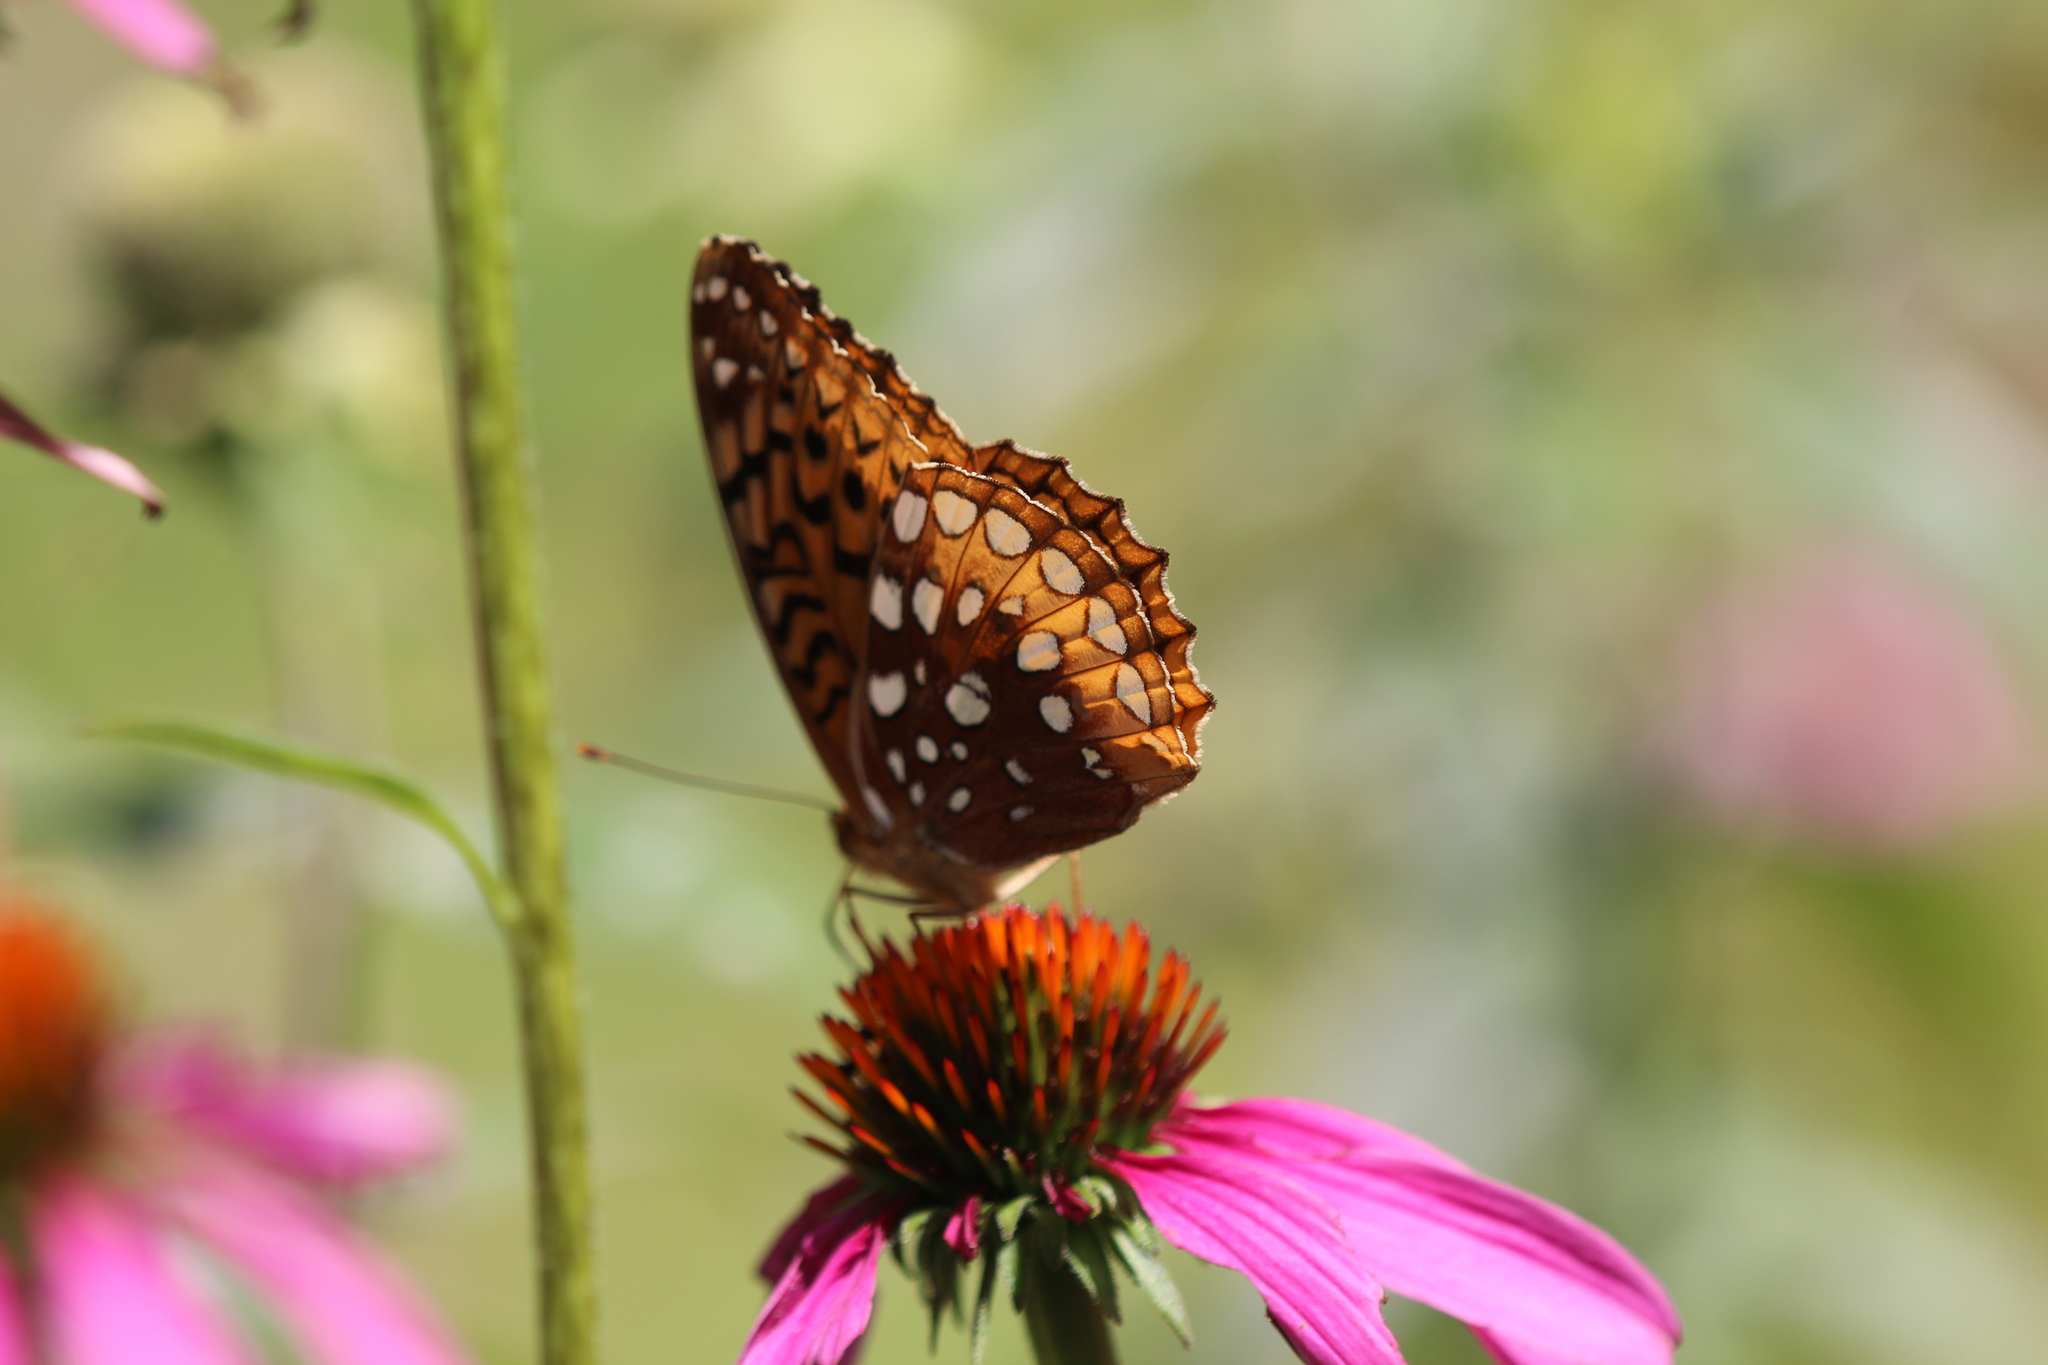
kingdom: Animalia
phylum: Arthropoda
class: Insecta
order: Lepidoptera
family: Nymphalidae
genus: Speyeria
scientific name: Speyeria cybele
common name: Great spangled fritillary
